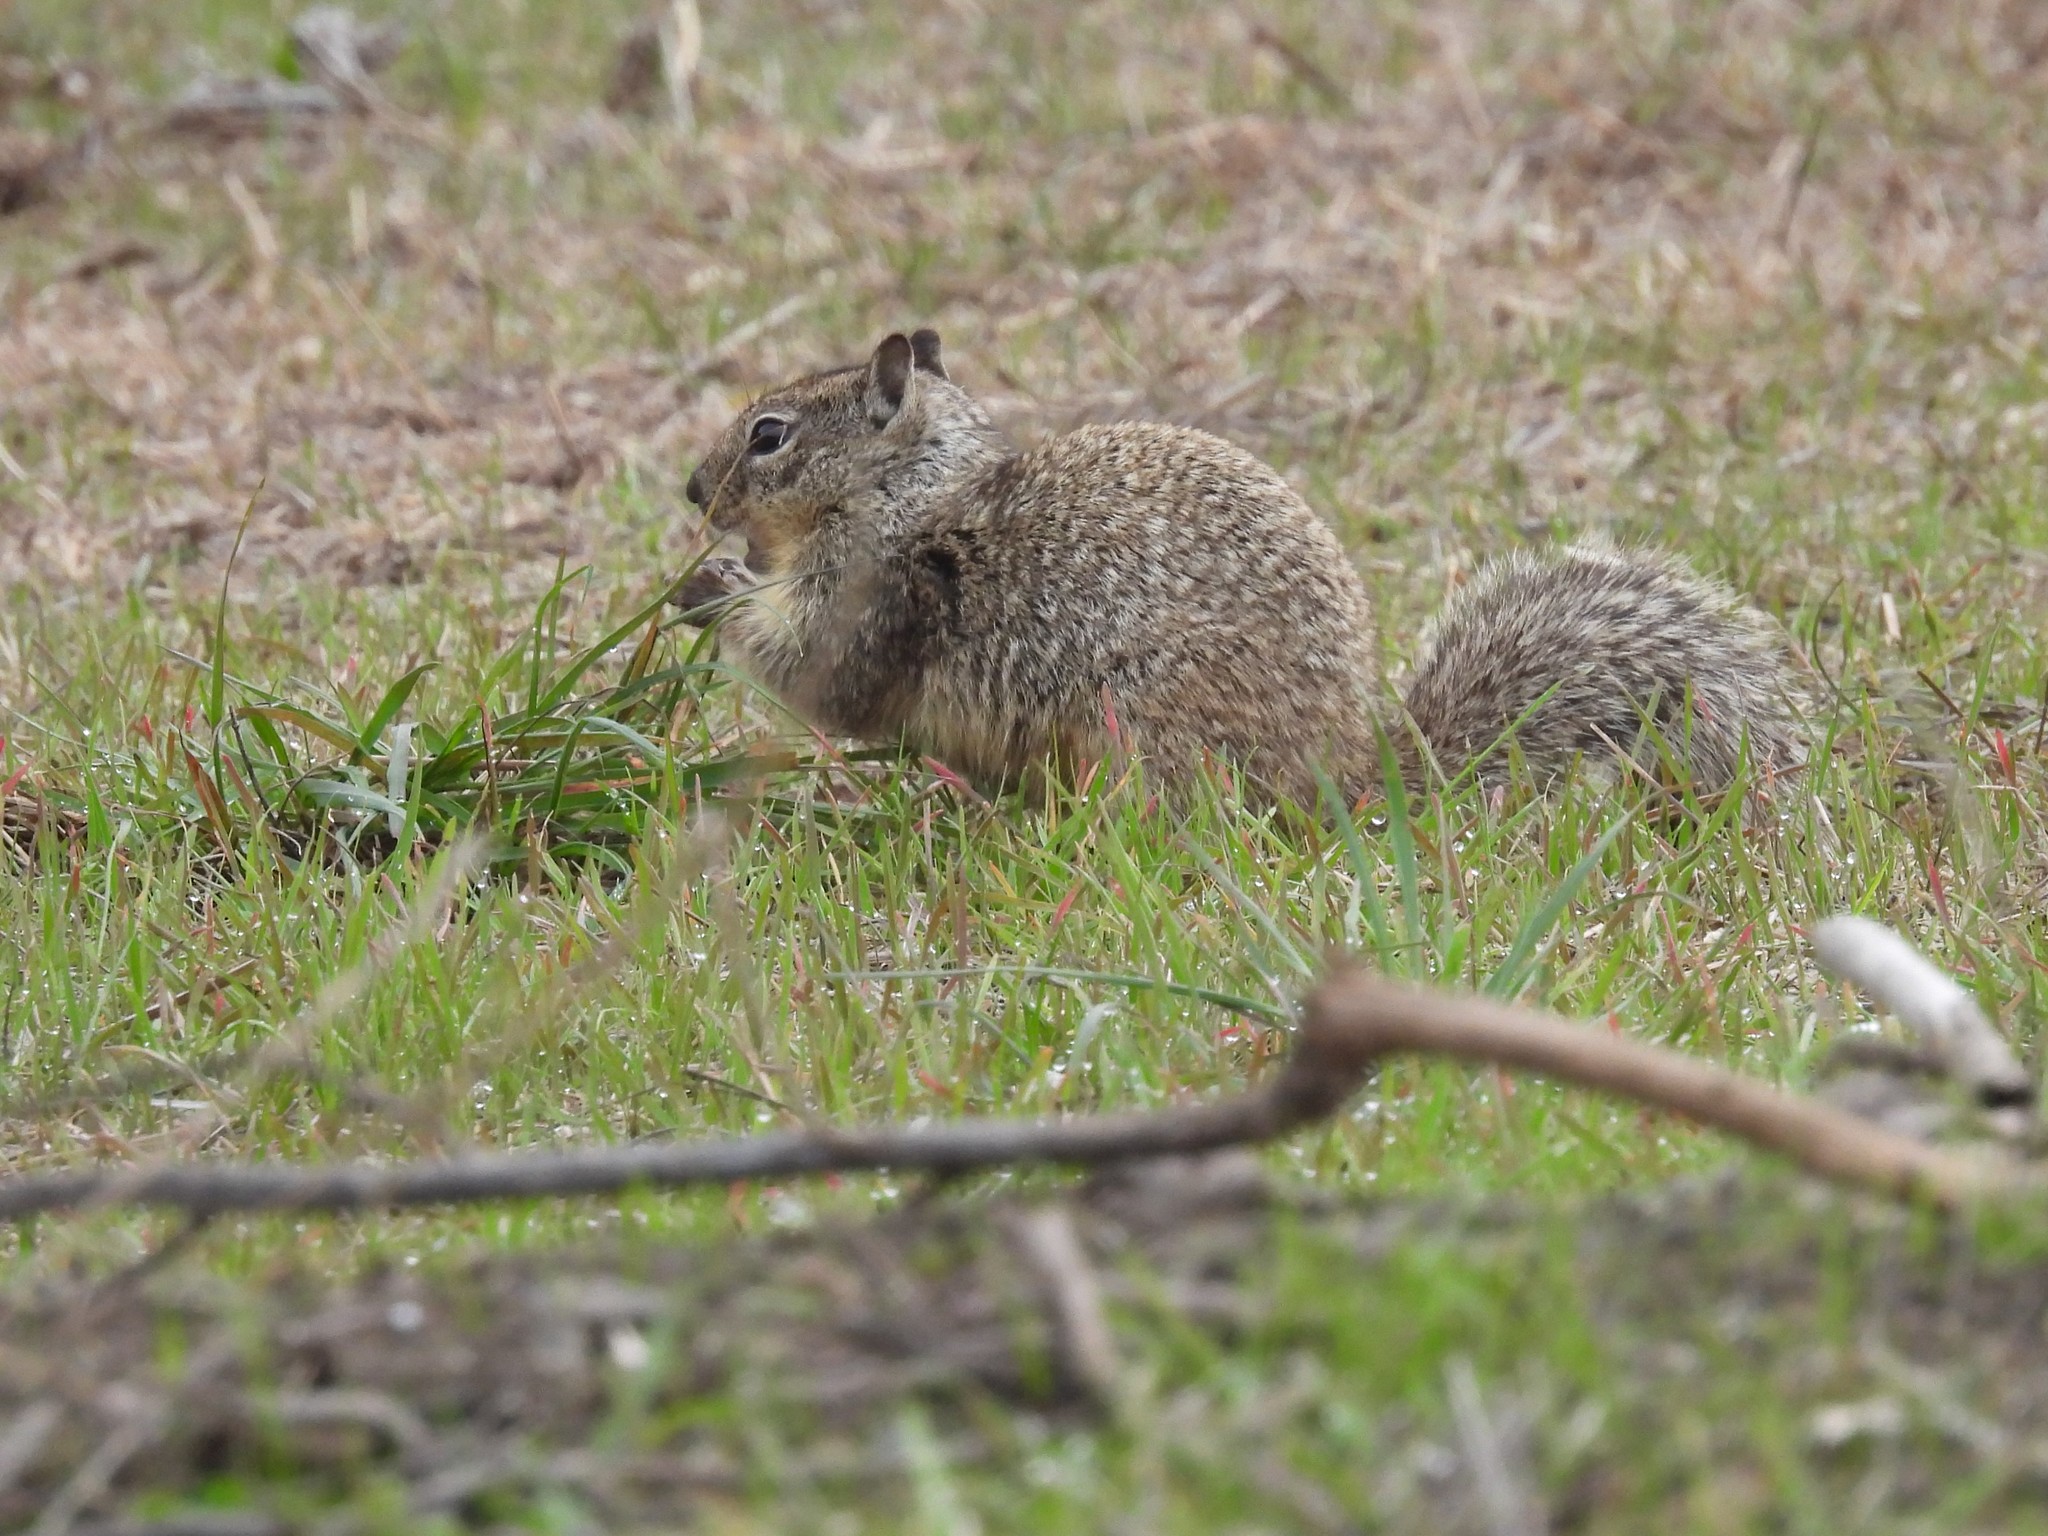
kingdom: Animalia
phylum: Chordata
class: Mammalia
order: Rodentia
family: Sciuridae
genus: Otospermophilus
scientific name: Otospermophilus beecheyi
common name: California ground squirrel
